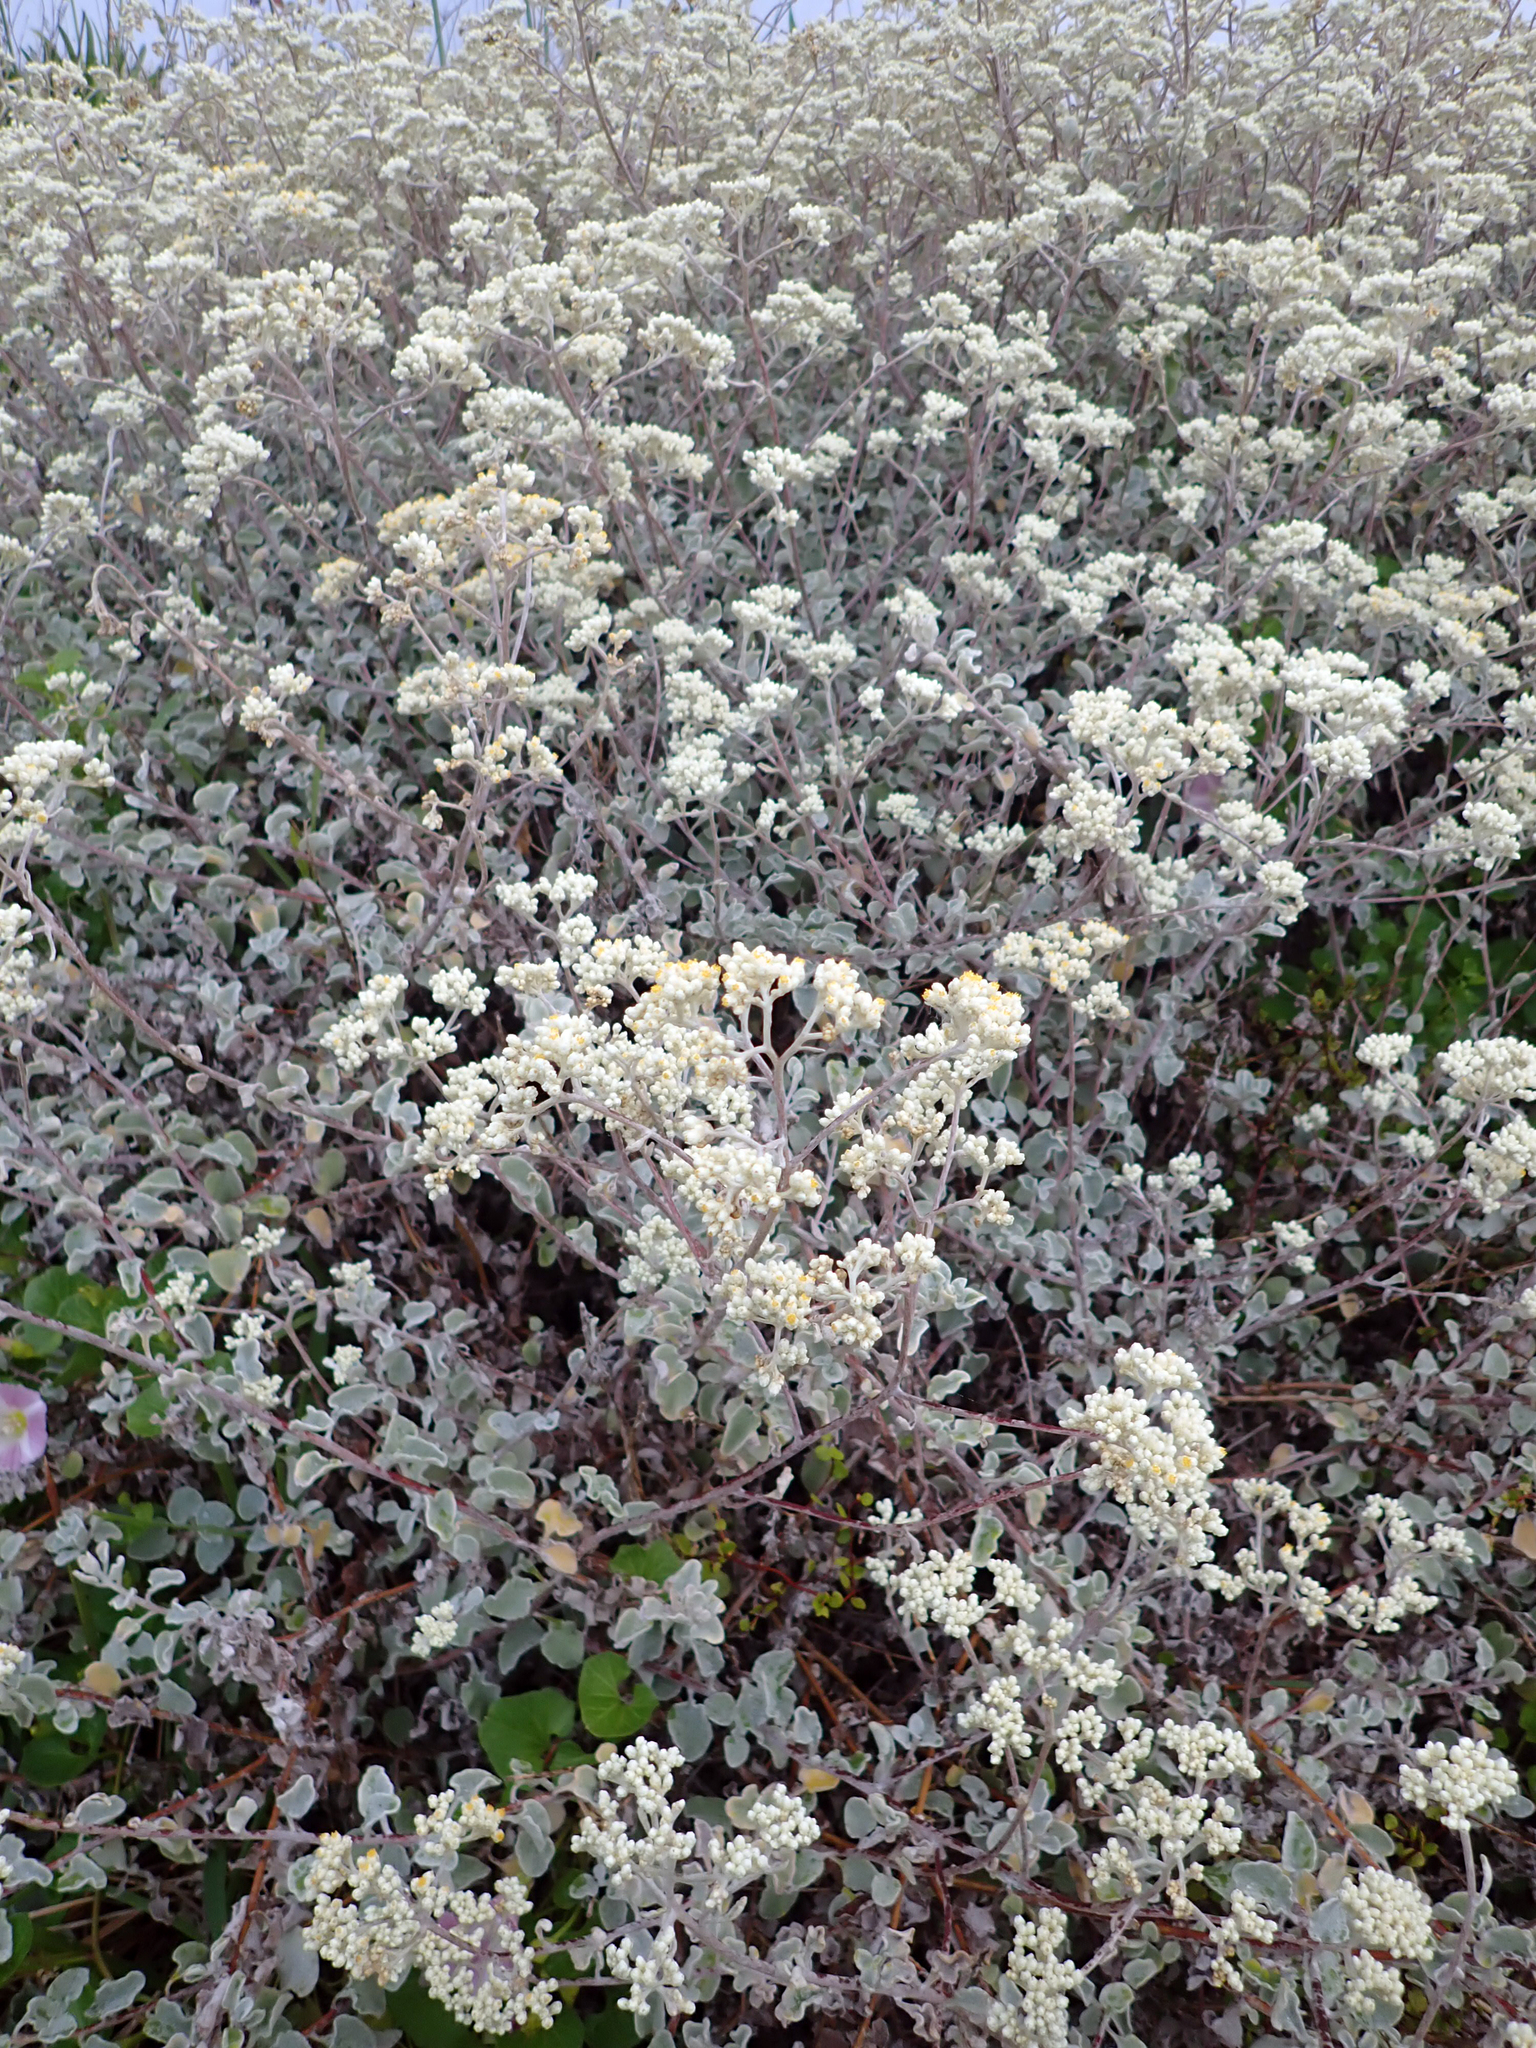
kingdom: Plantae
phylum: Tracheophyta
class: Magnoliopsida
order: Asterales
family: Asteraceae
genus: Helichrysum
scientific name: Helichrysum petiolare
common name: Licorice-plant
